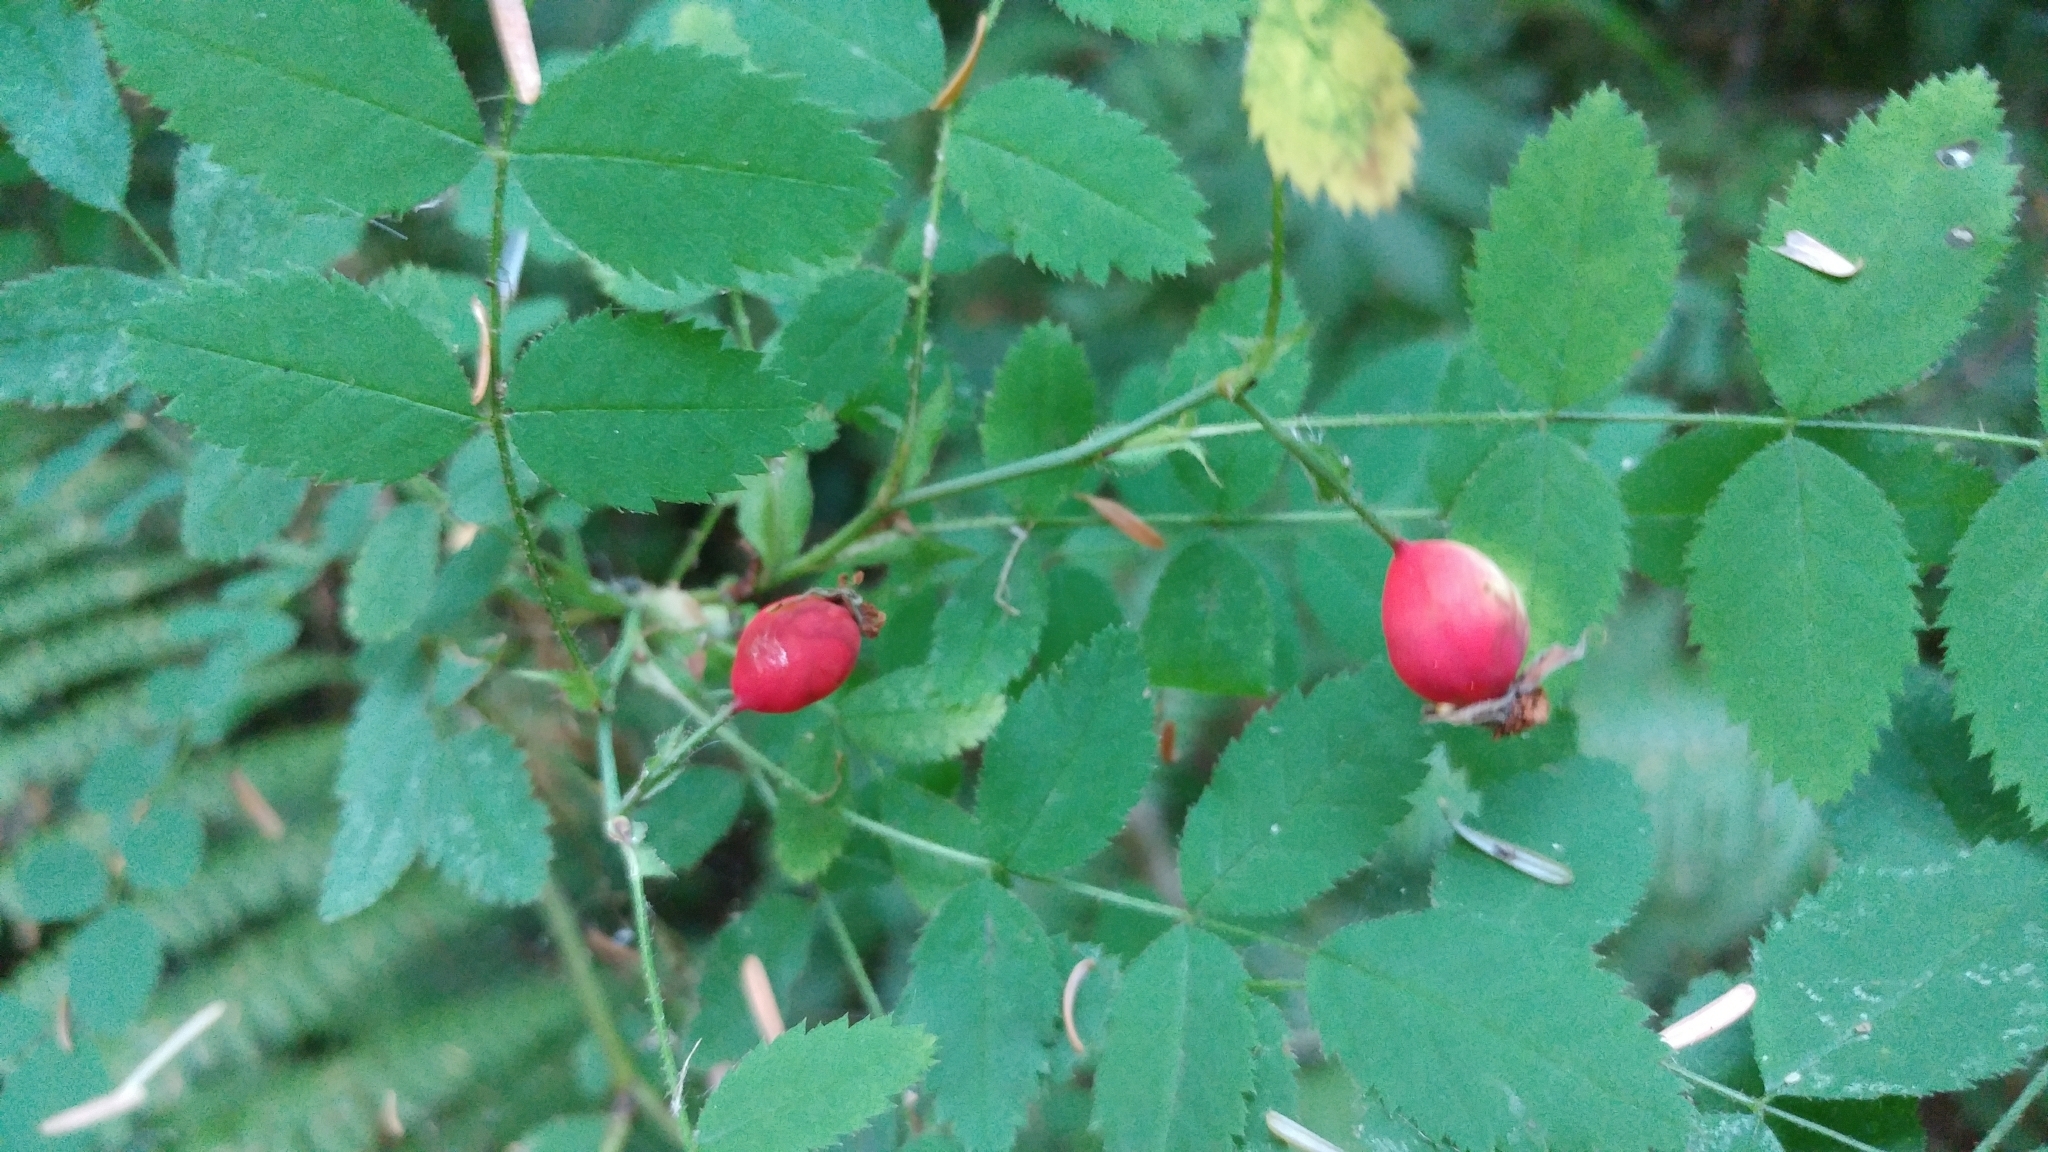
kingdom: Plantae
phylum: Tracheophyta
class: Magnoliopsida
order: Rosales
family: Rosaceae
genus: Rosa
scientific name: Rosa gymnocarpa
